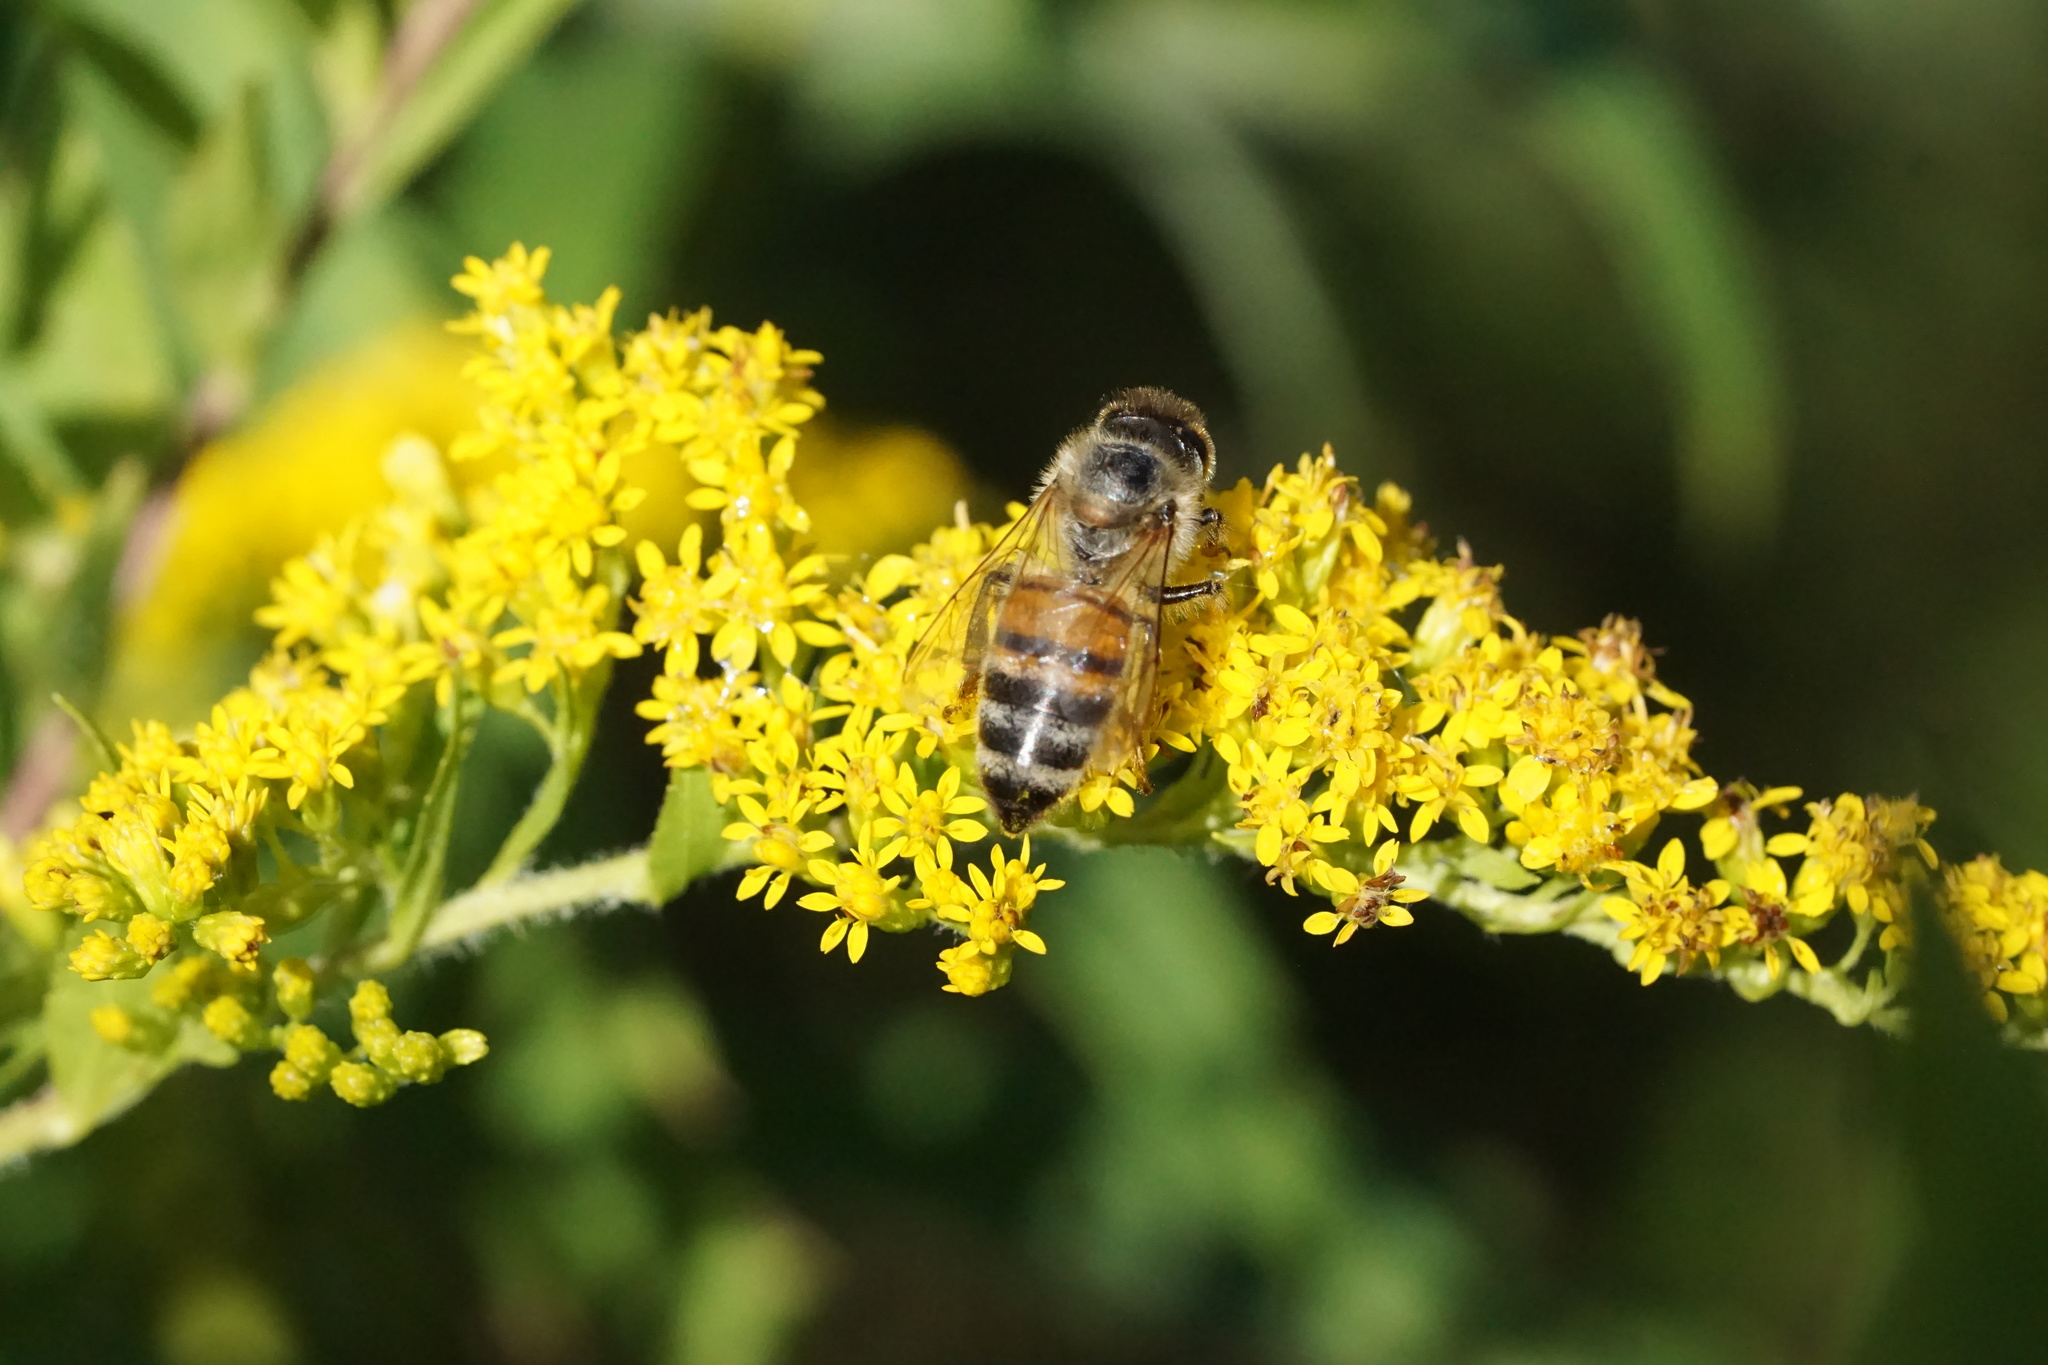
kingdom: Animalia
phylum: Arthropoda
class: Insecta
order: Hymenoptera
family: Apidae
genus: Apis
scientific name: Apis mellifera
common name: Honey bee
